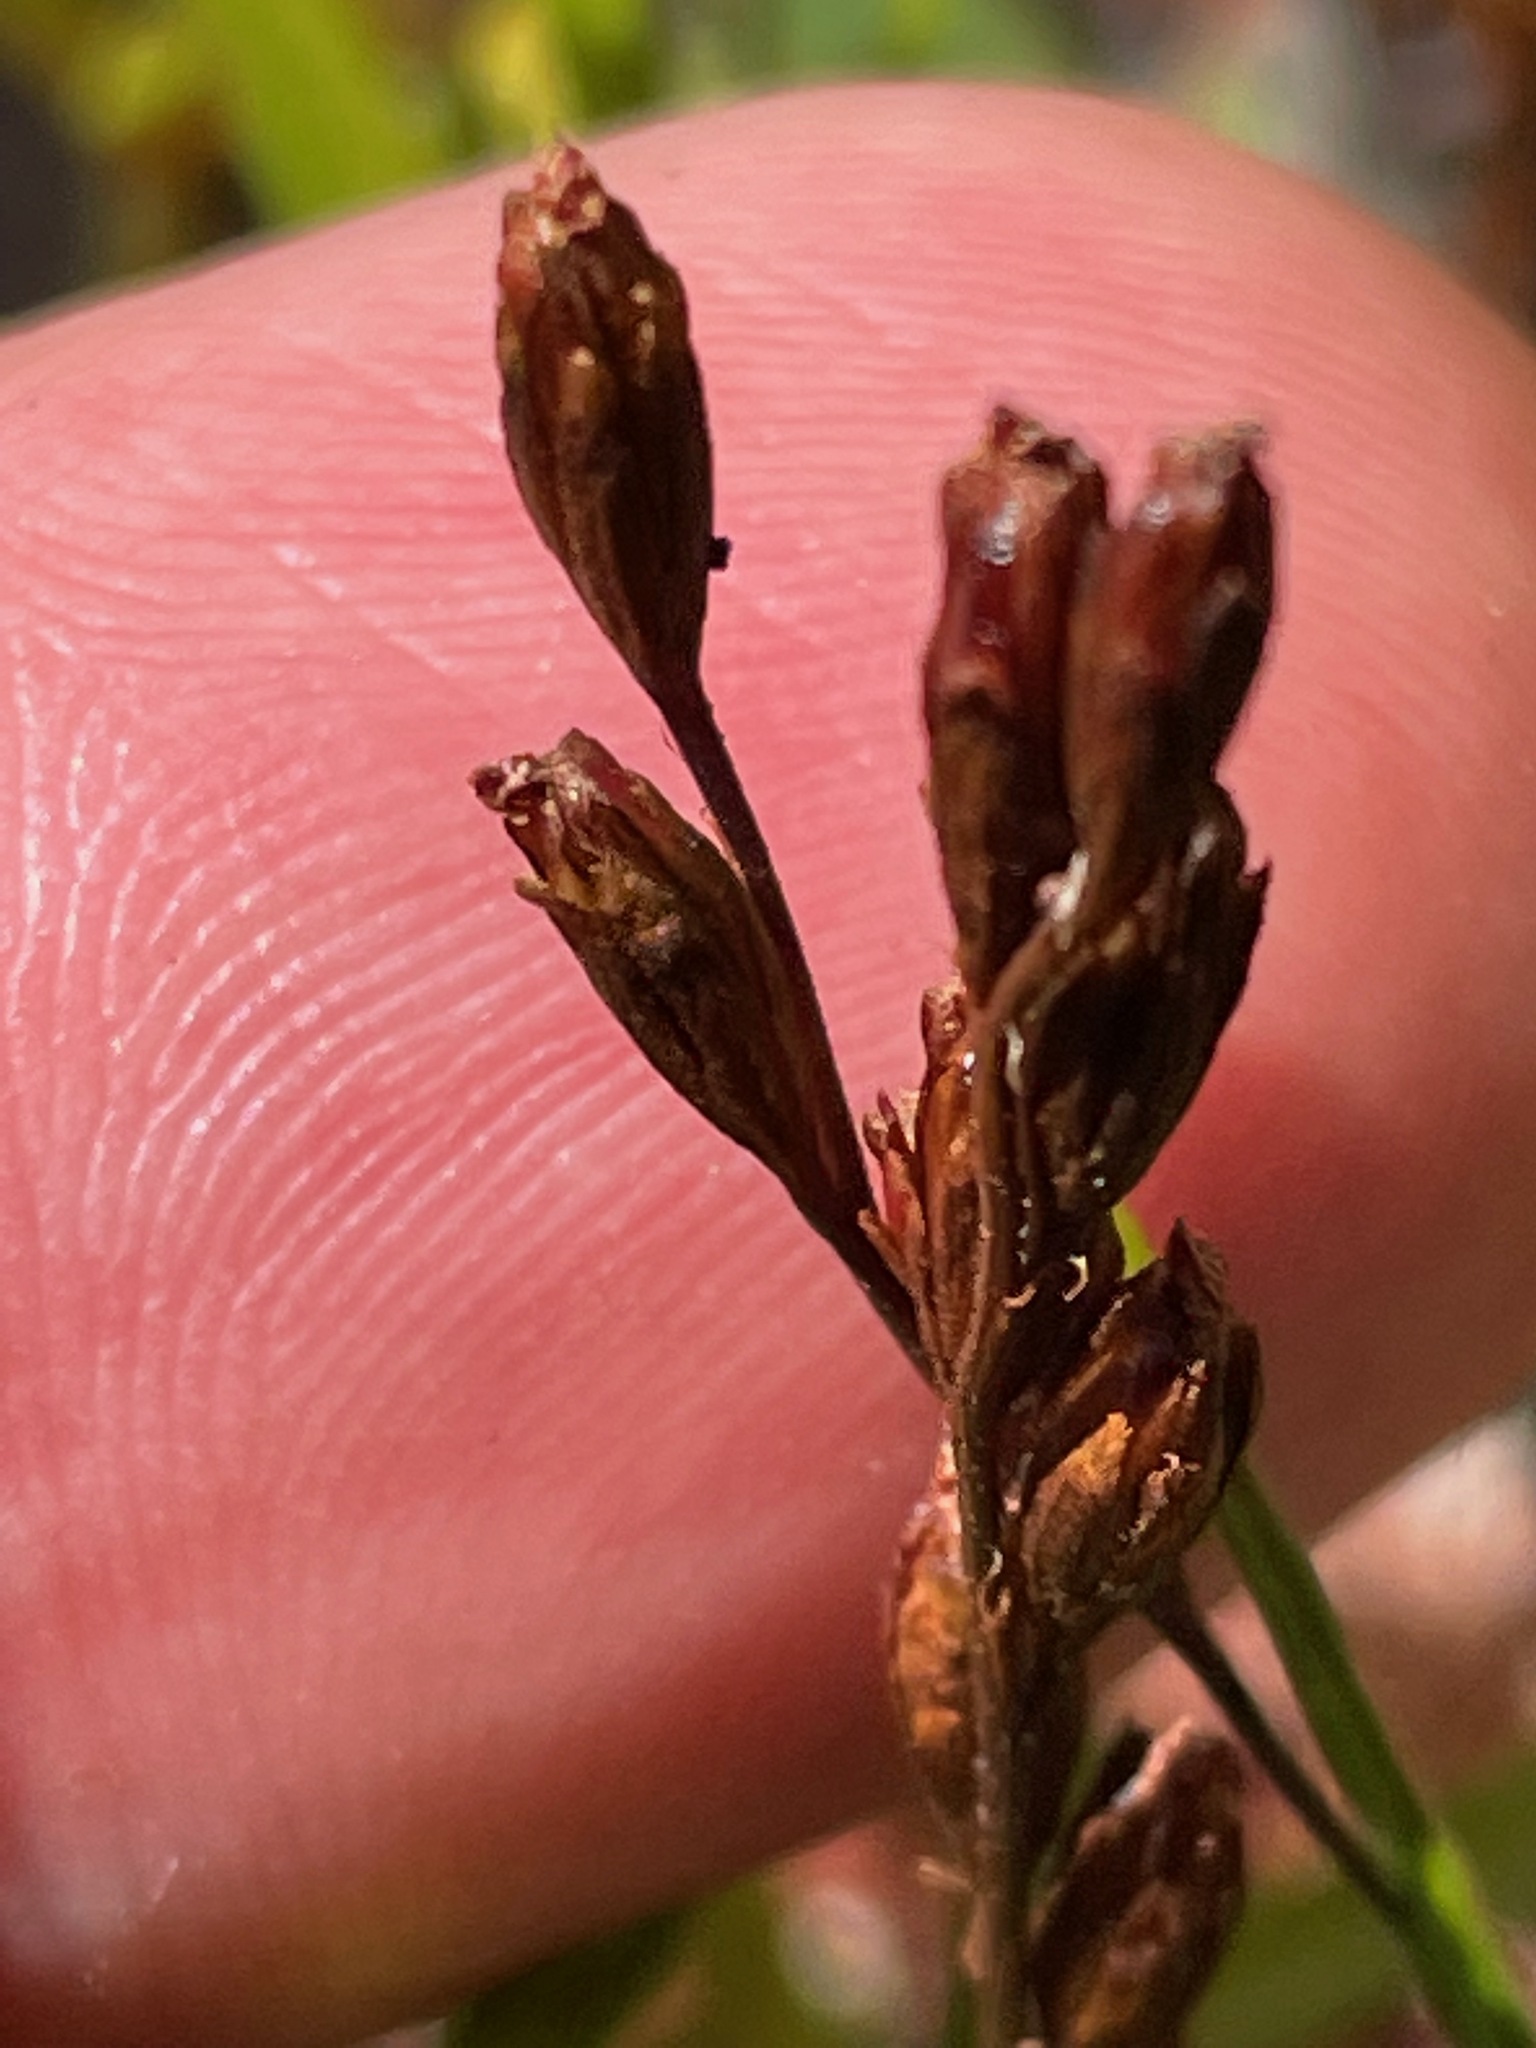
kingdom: Plantae
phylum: Tracheophyta
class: Magnoliopsida
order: Caryophyllales
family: Droseraceae
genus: Drosera
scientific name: Drosera rotundifolia
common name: Round-leaved sundew
